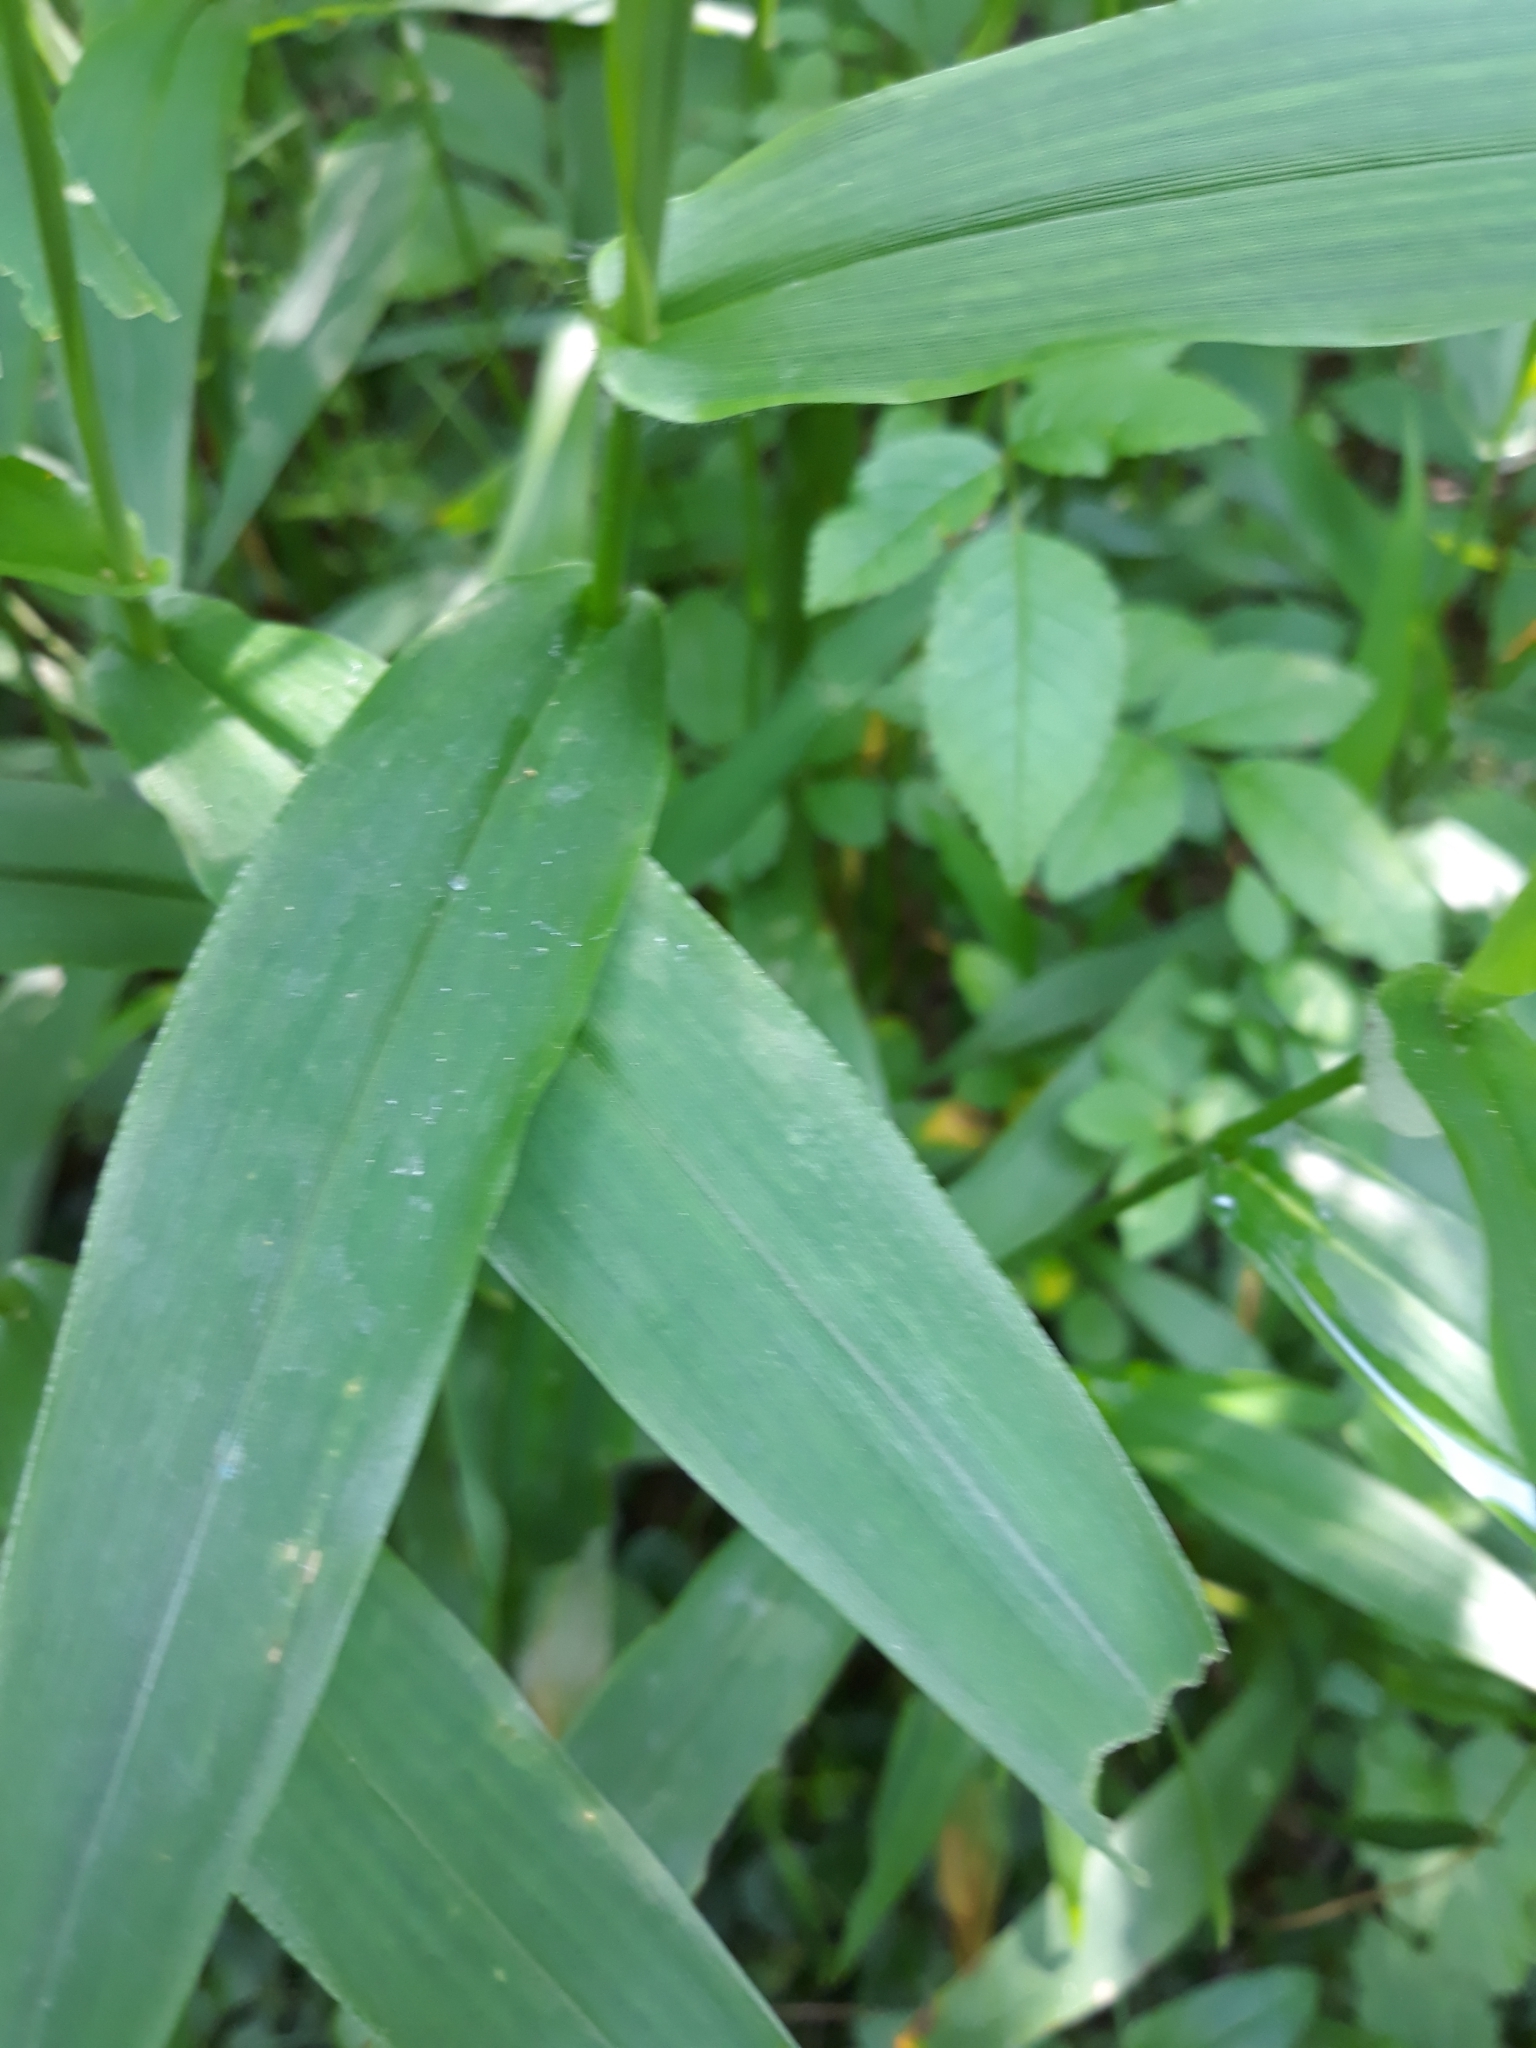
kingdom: Plantae
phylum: Tracheophyta
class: Liliopsida
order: Poales
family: Poaceae
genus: Chasmanthium
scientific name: Chasmanthium latifolium
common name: Broad-leaved chasmanthium
